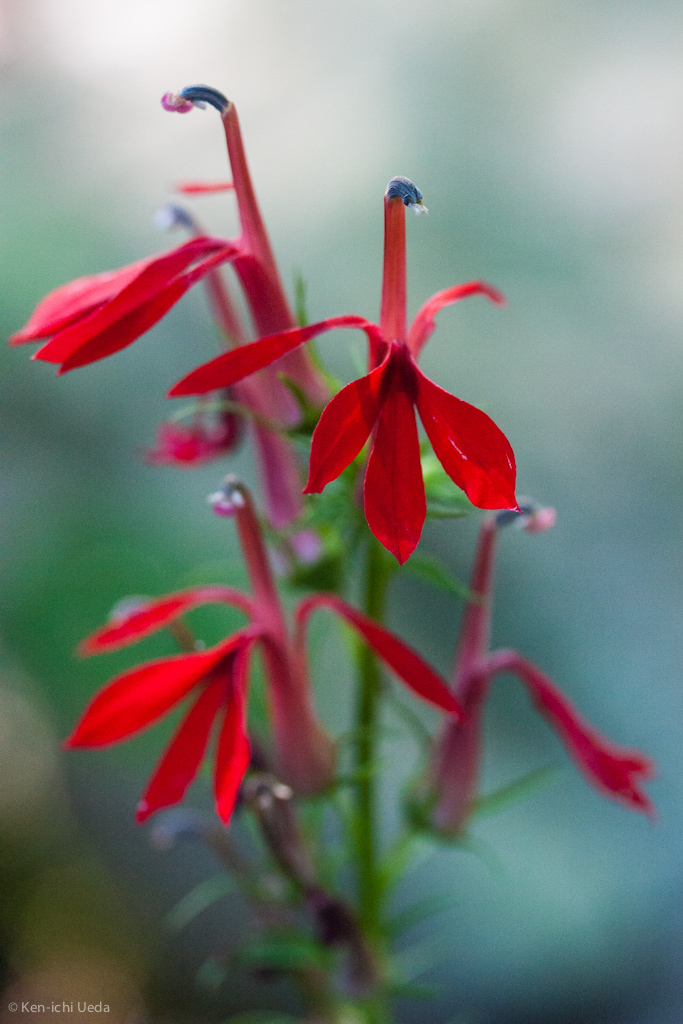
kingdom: Plantae
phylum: Tracheophyta
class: Magnoliopsida
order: Asterales
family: Campanulaceae
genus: Lobelia
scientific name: Lobelia cardinalis
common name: Cardinal flower
